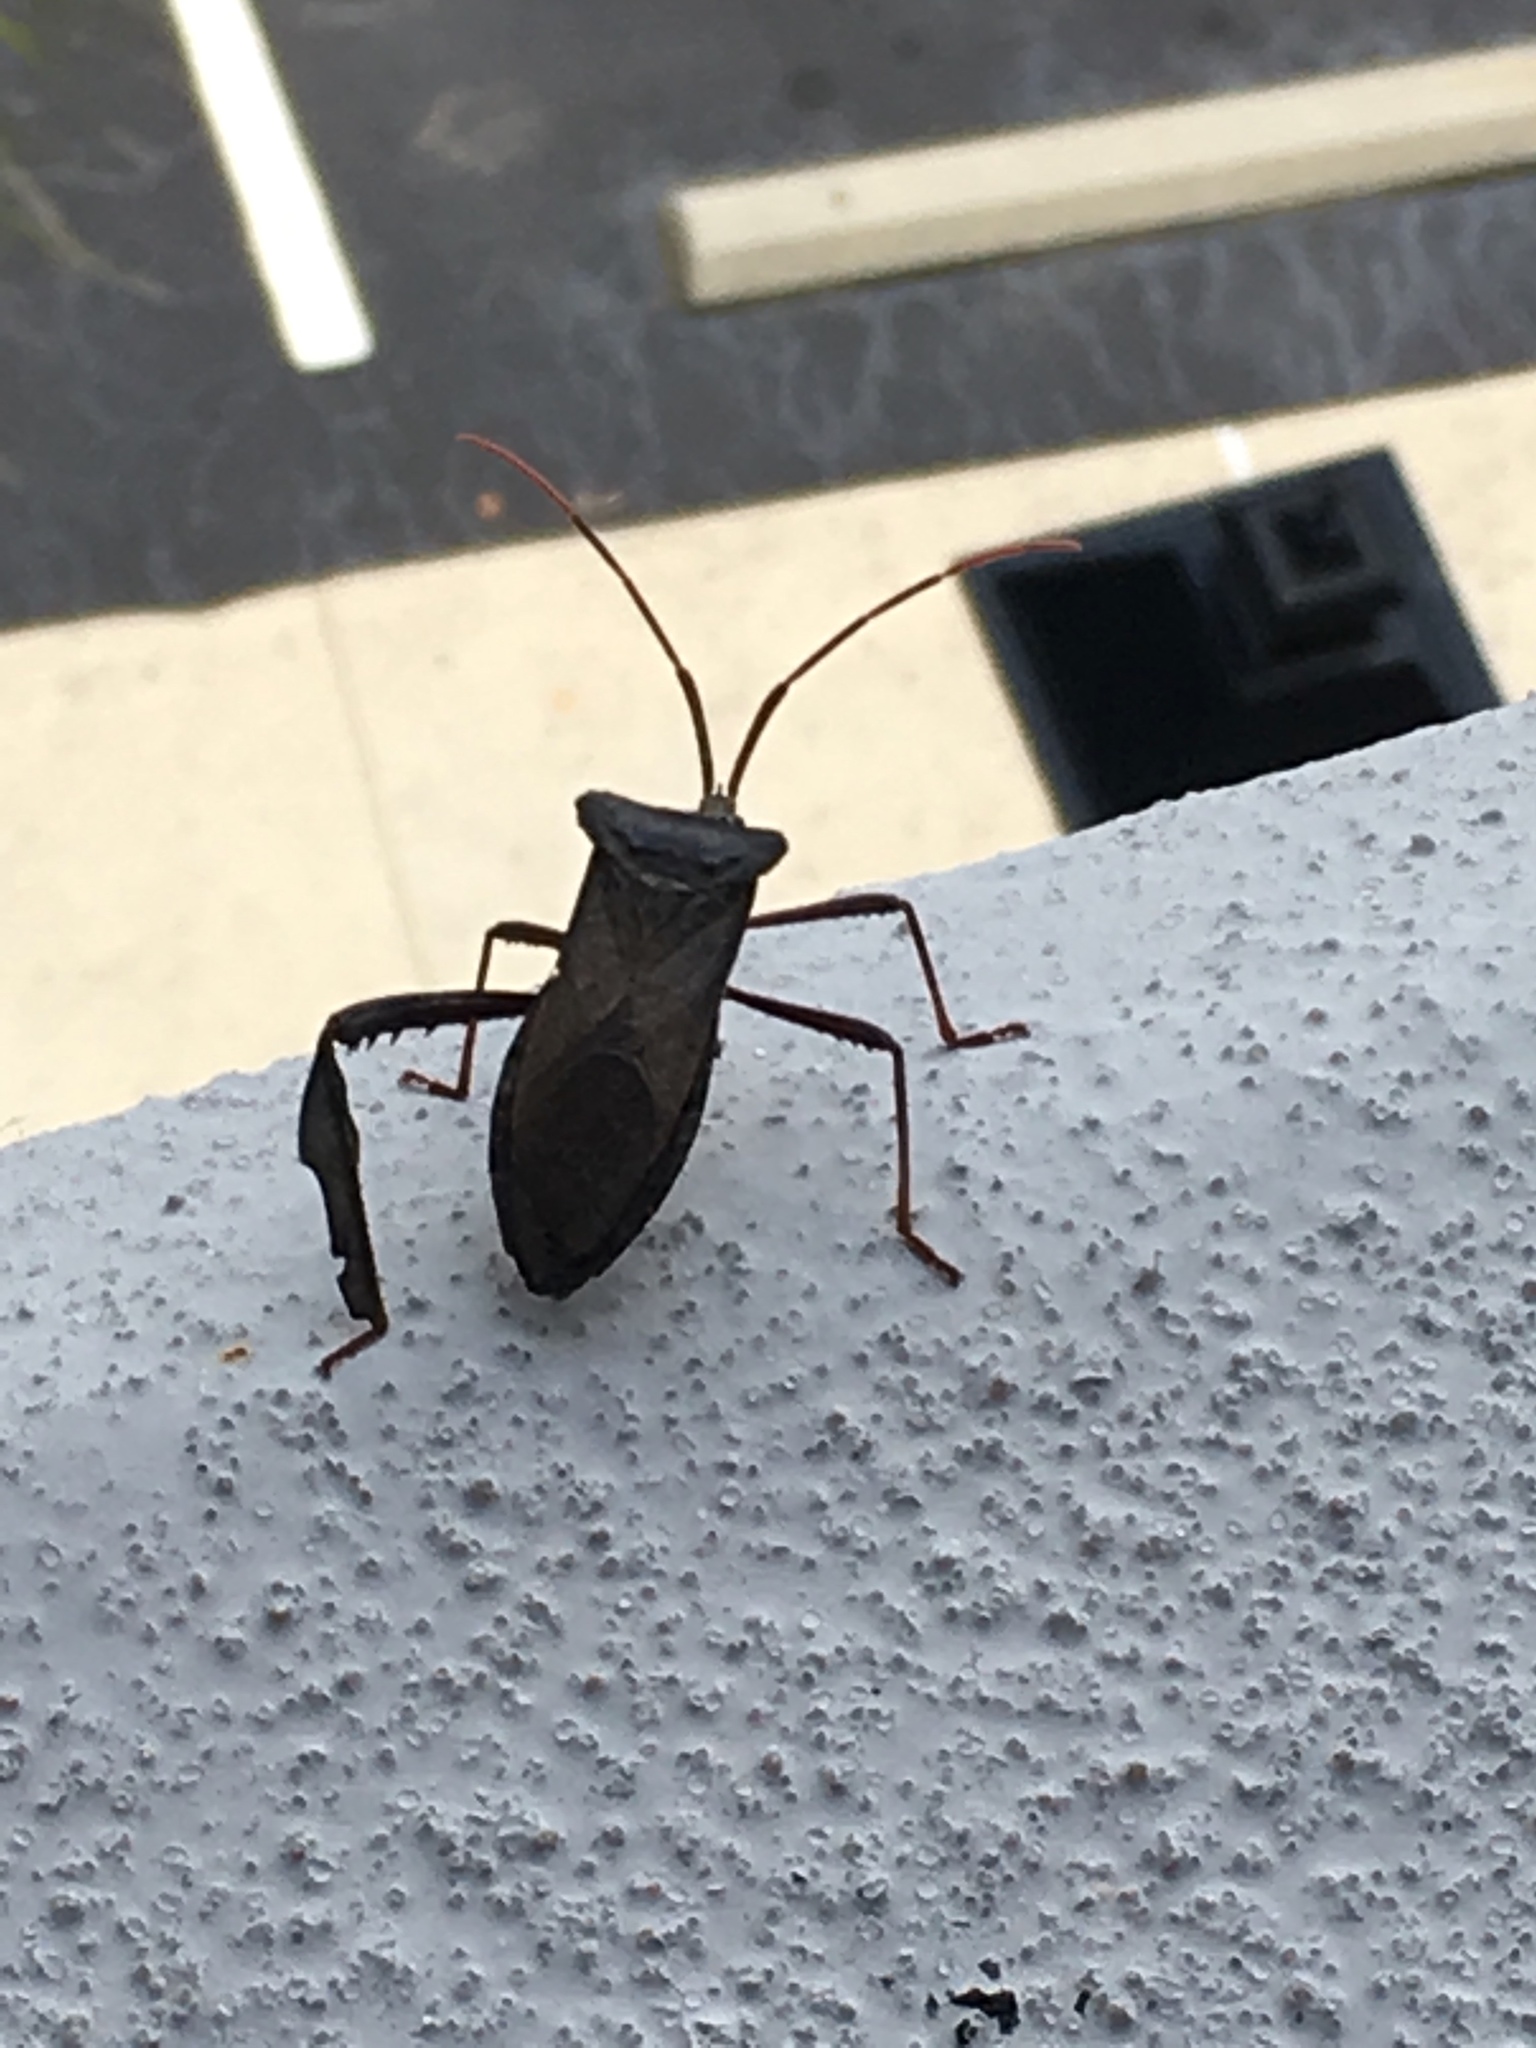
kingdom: Animalia
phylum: Arthropoda
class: Insecta
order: Hemiptera
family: Coreidae
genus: Acanthocephala
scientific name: Acanthocephala declivis
